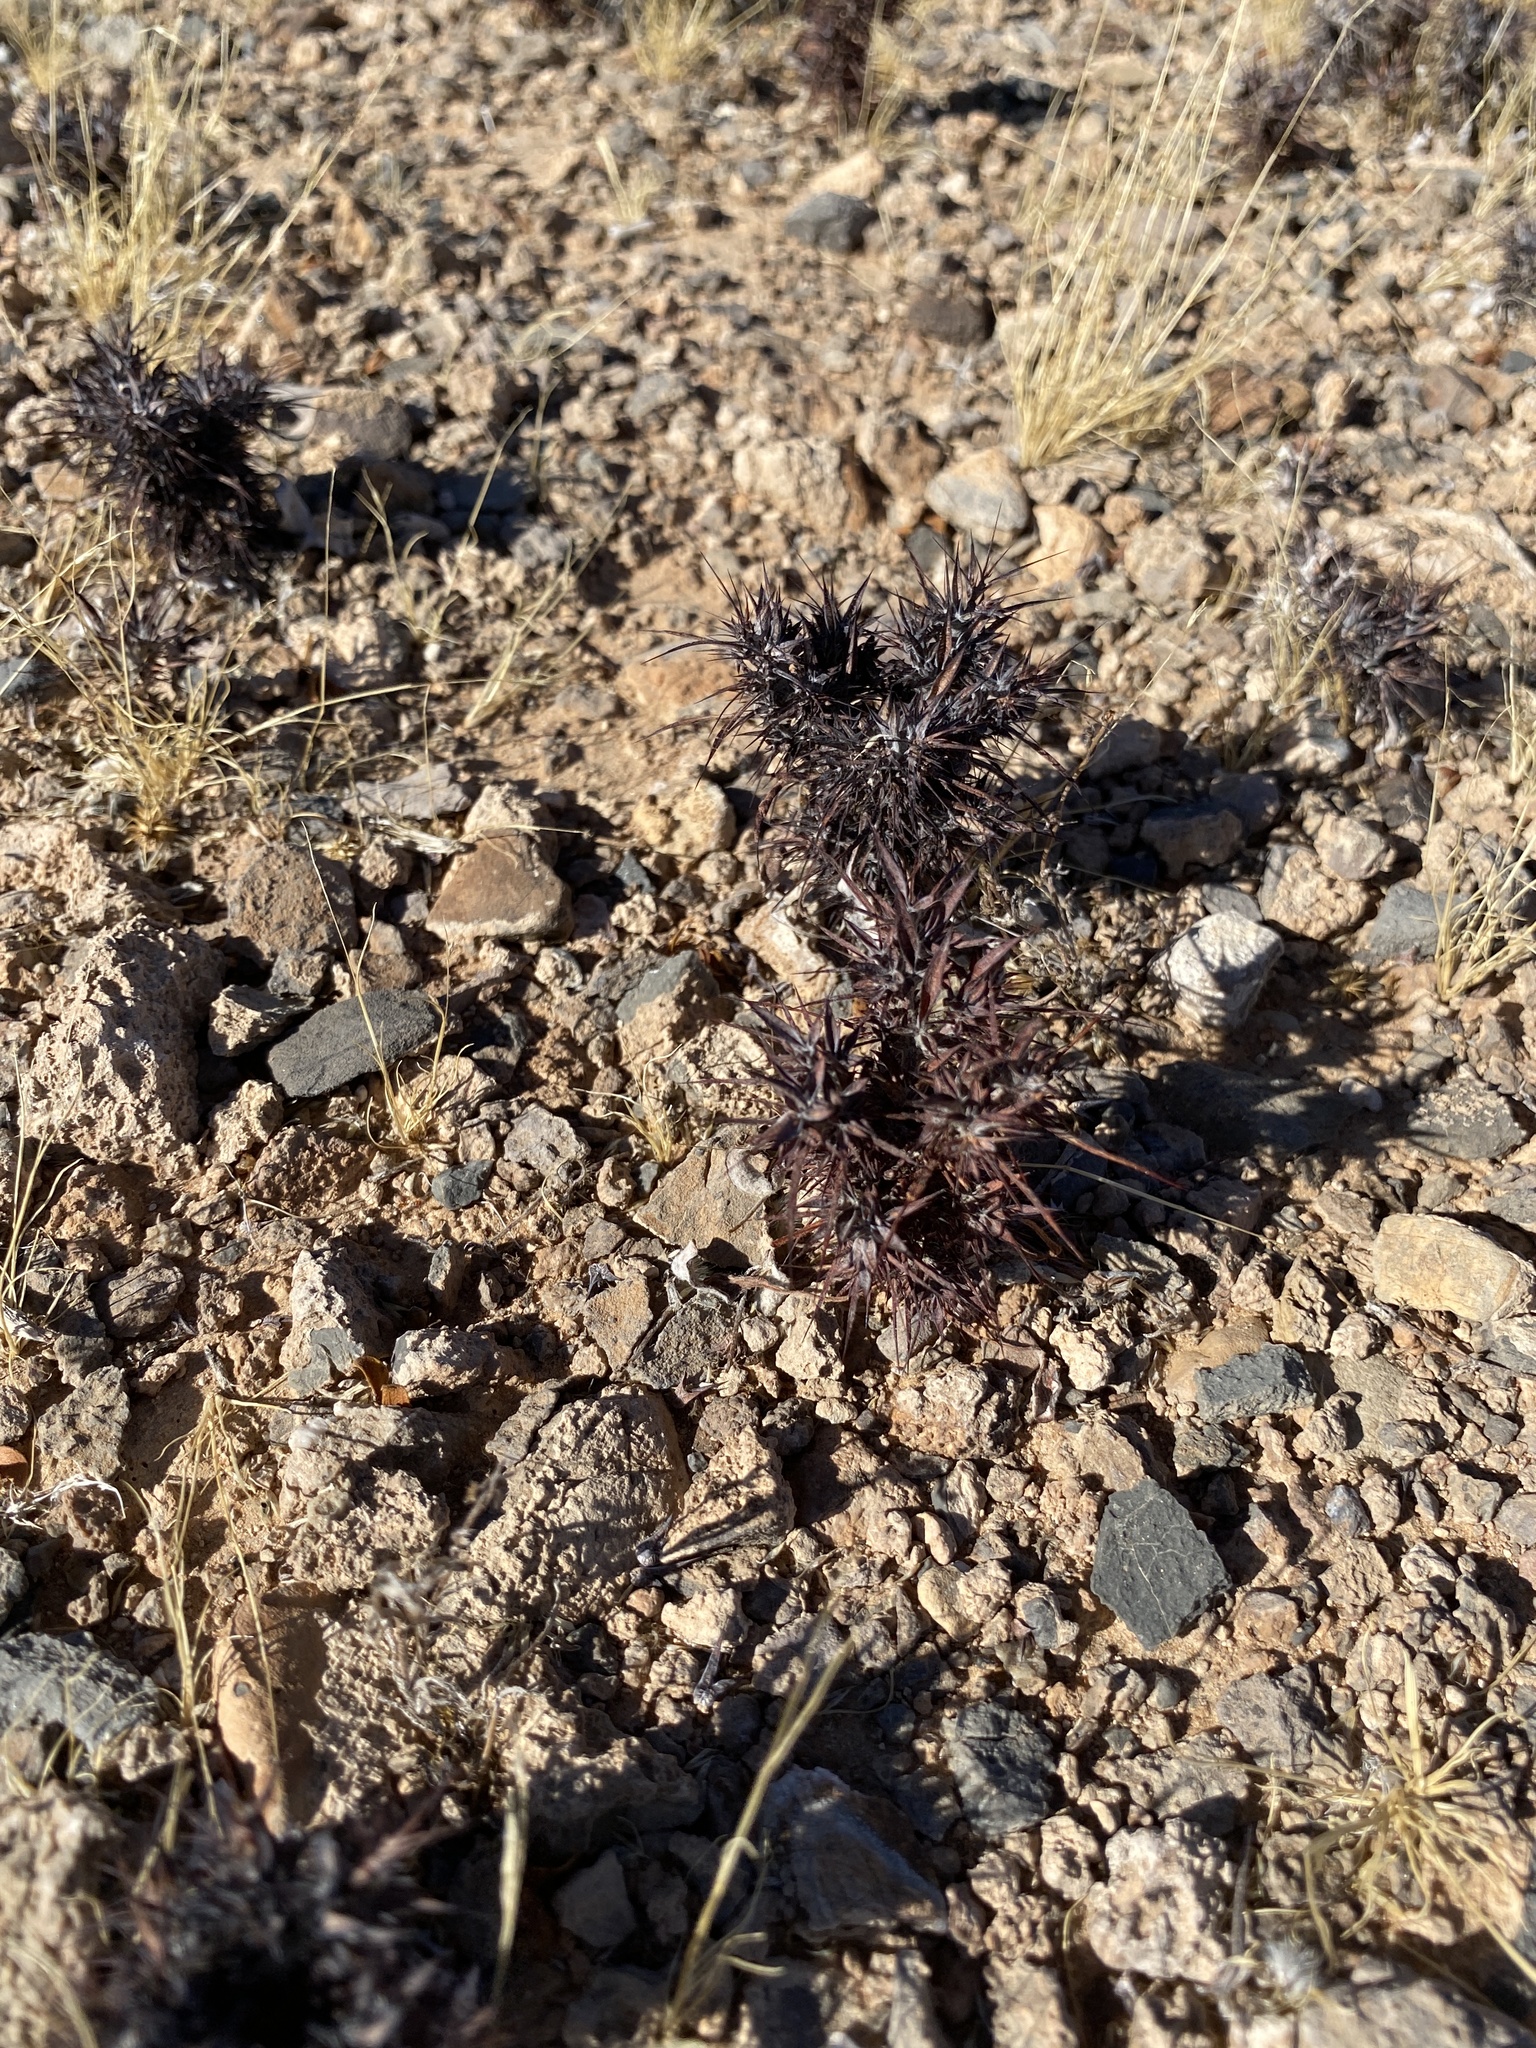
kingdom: Plantae
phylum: Tracheophyta
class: Magnoliopsida
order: Caryophyllales
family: Polygonaceae
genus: Chorizanthe
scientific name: Chorizanthe rigida
